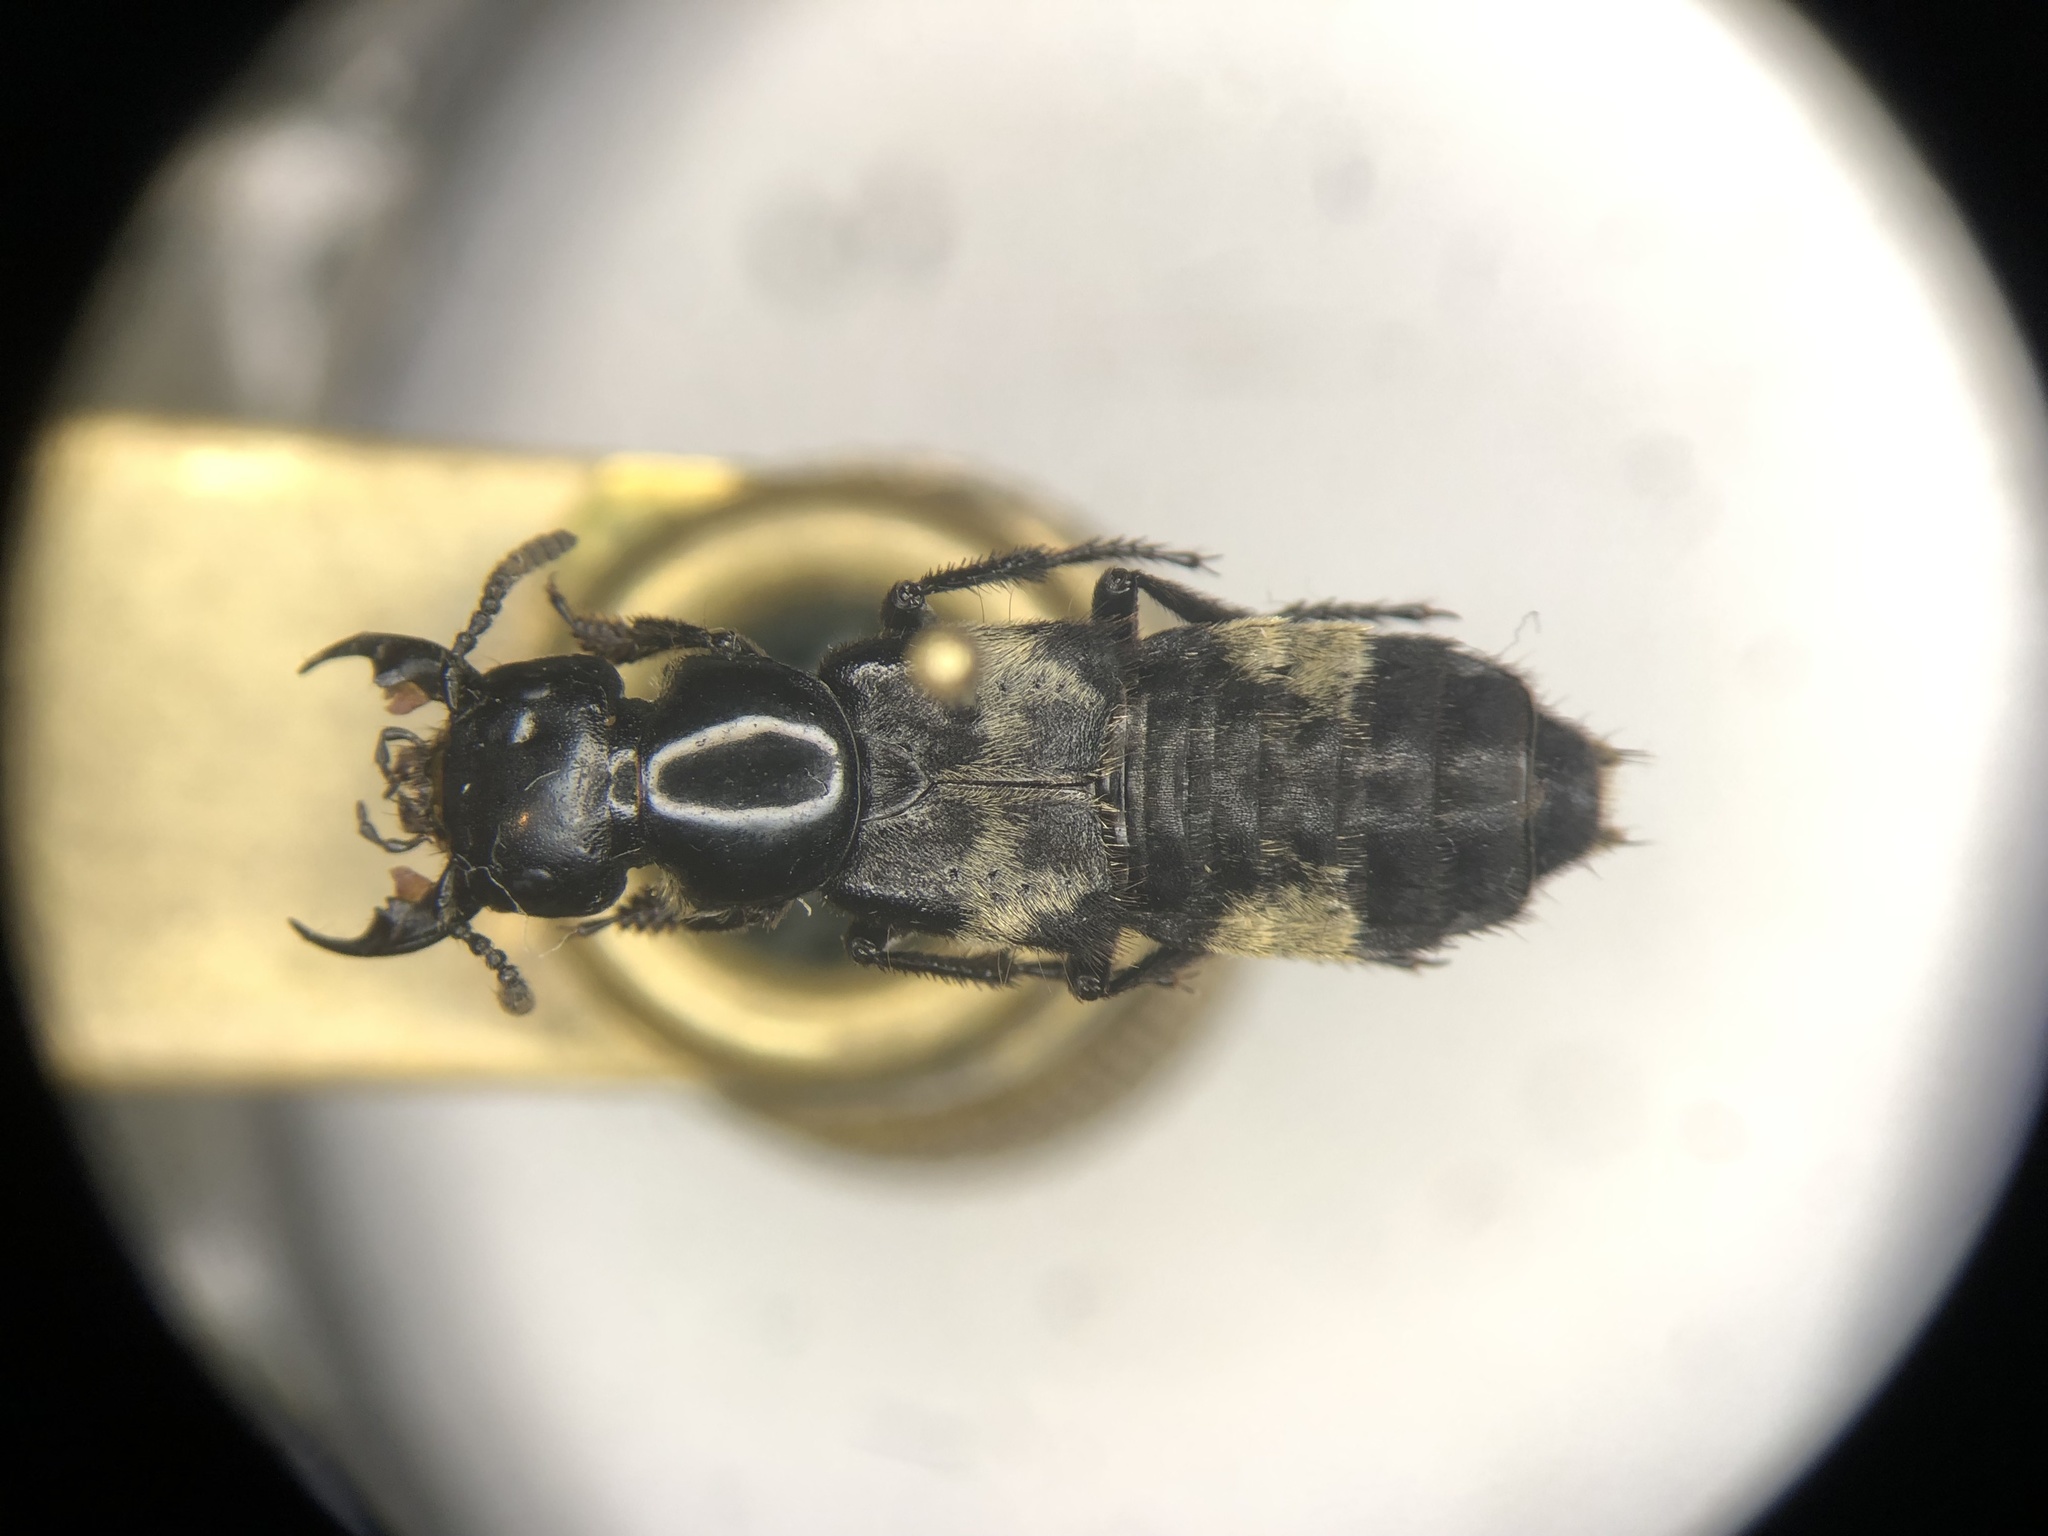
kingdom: Animalia
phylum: Arthropoda
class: Insecta
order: Coleoptera
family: Staphylinidae
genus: Creophilus
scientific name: Creophilus maxillosus
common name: Hairy rove beetle
